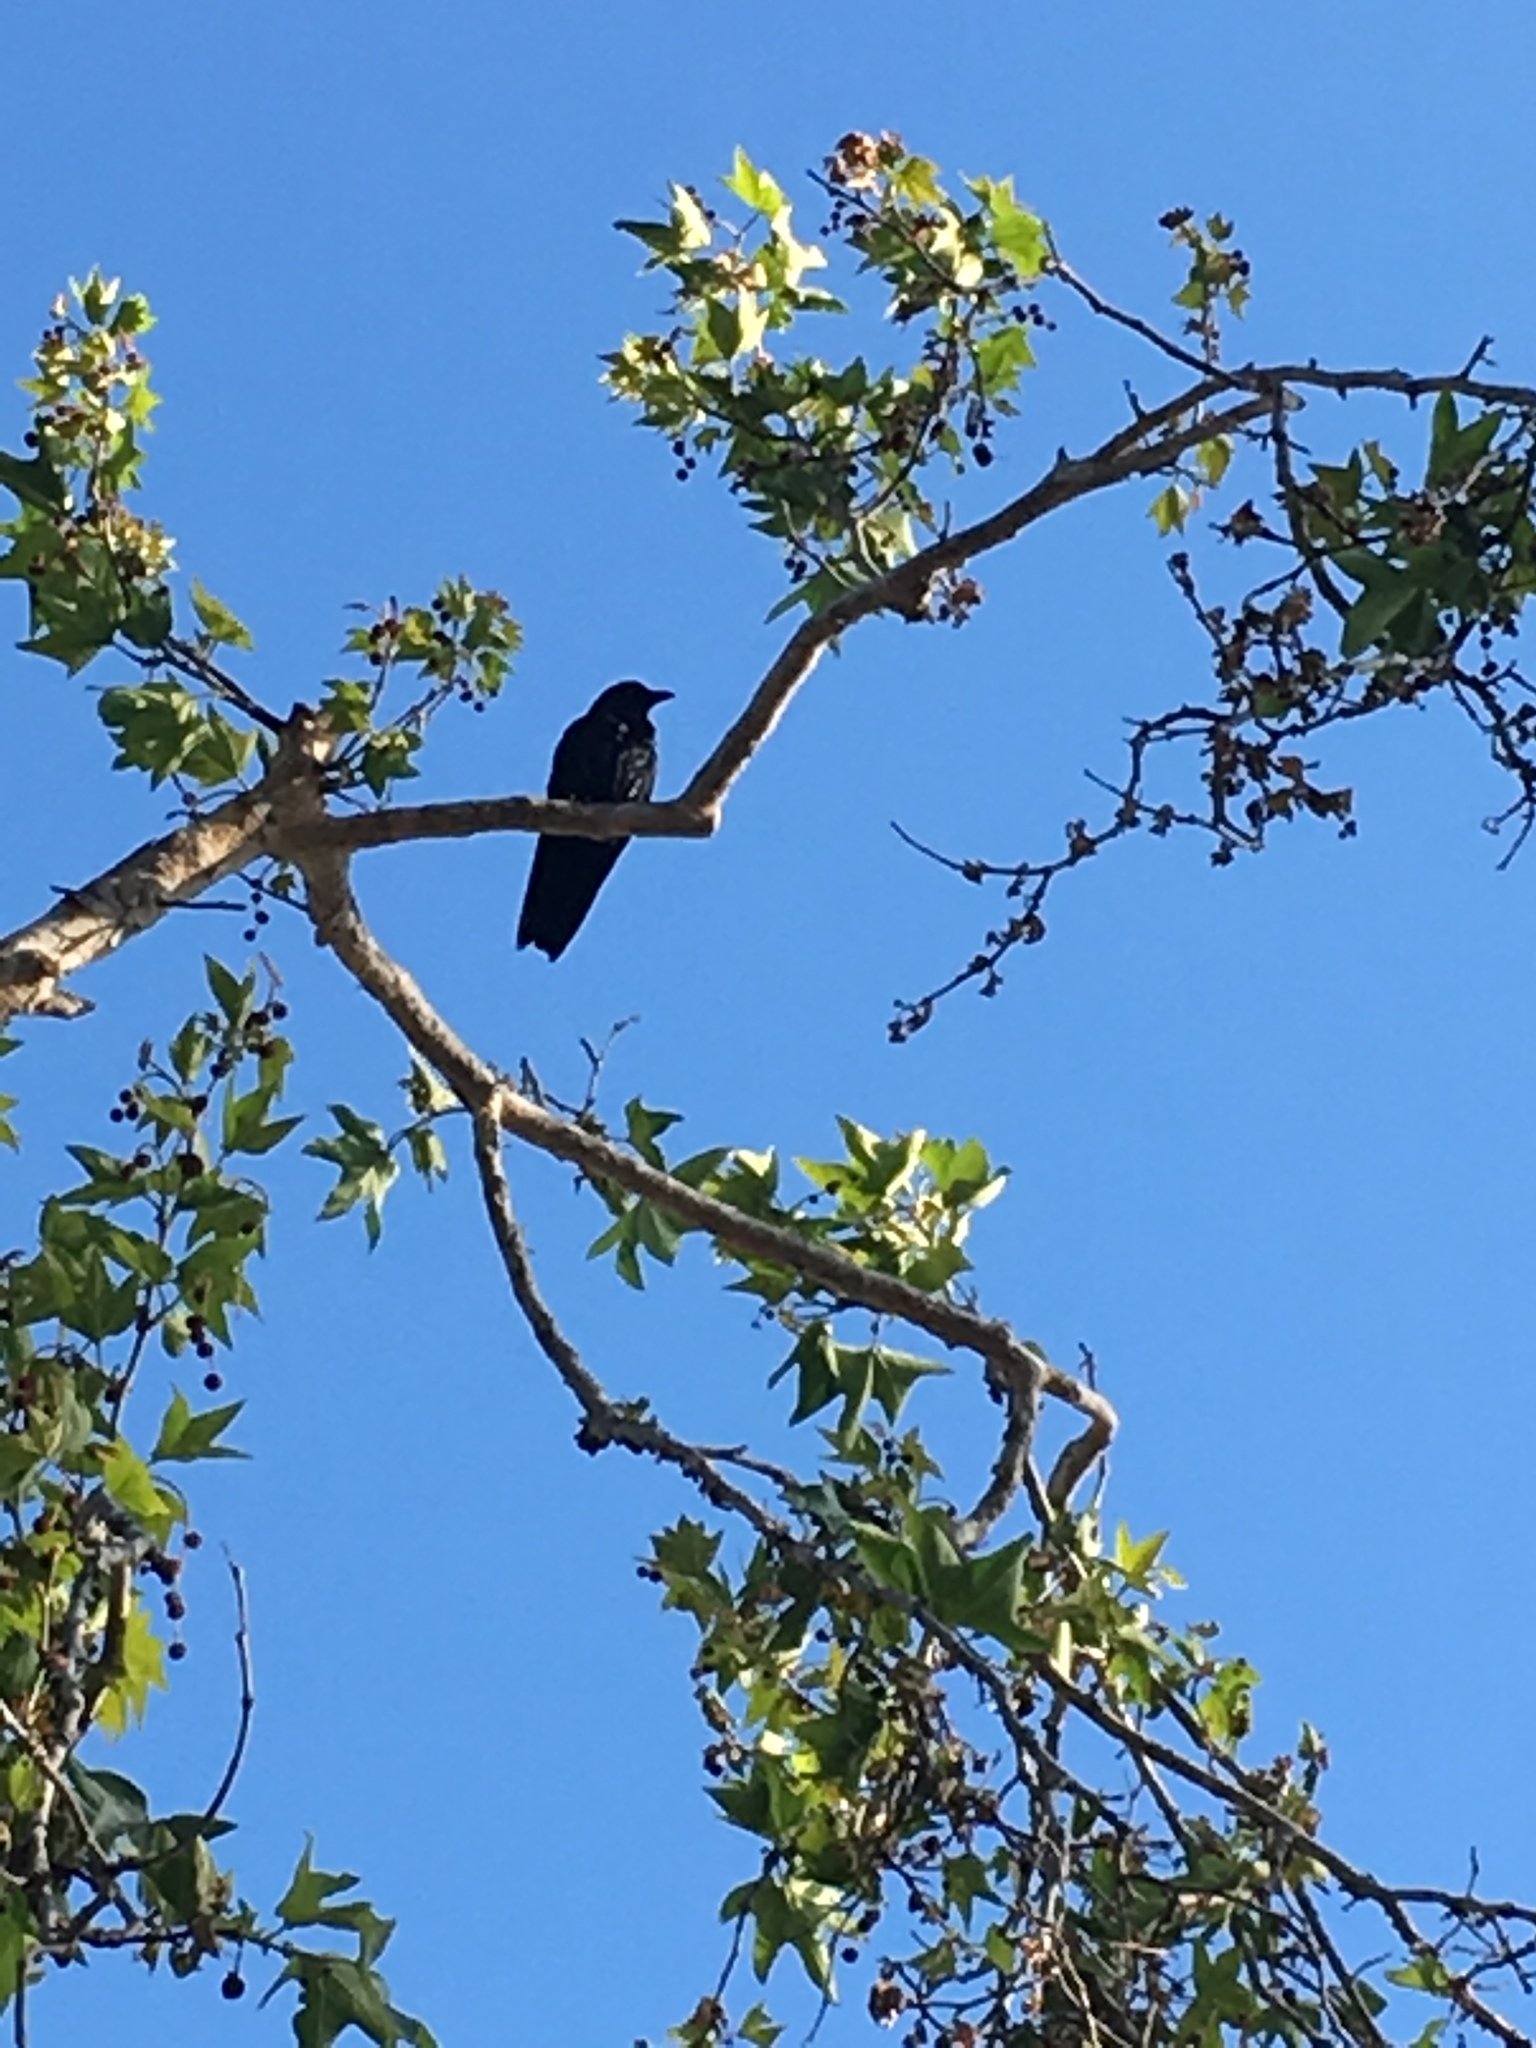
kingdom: Animalia
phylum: Chordata
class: Aves
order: Passeriformes
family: Corvidae
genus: Corvus
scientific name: Corvus brachyrhynchos
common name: American crow
